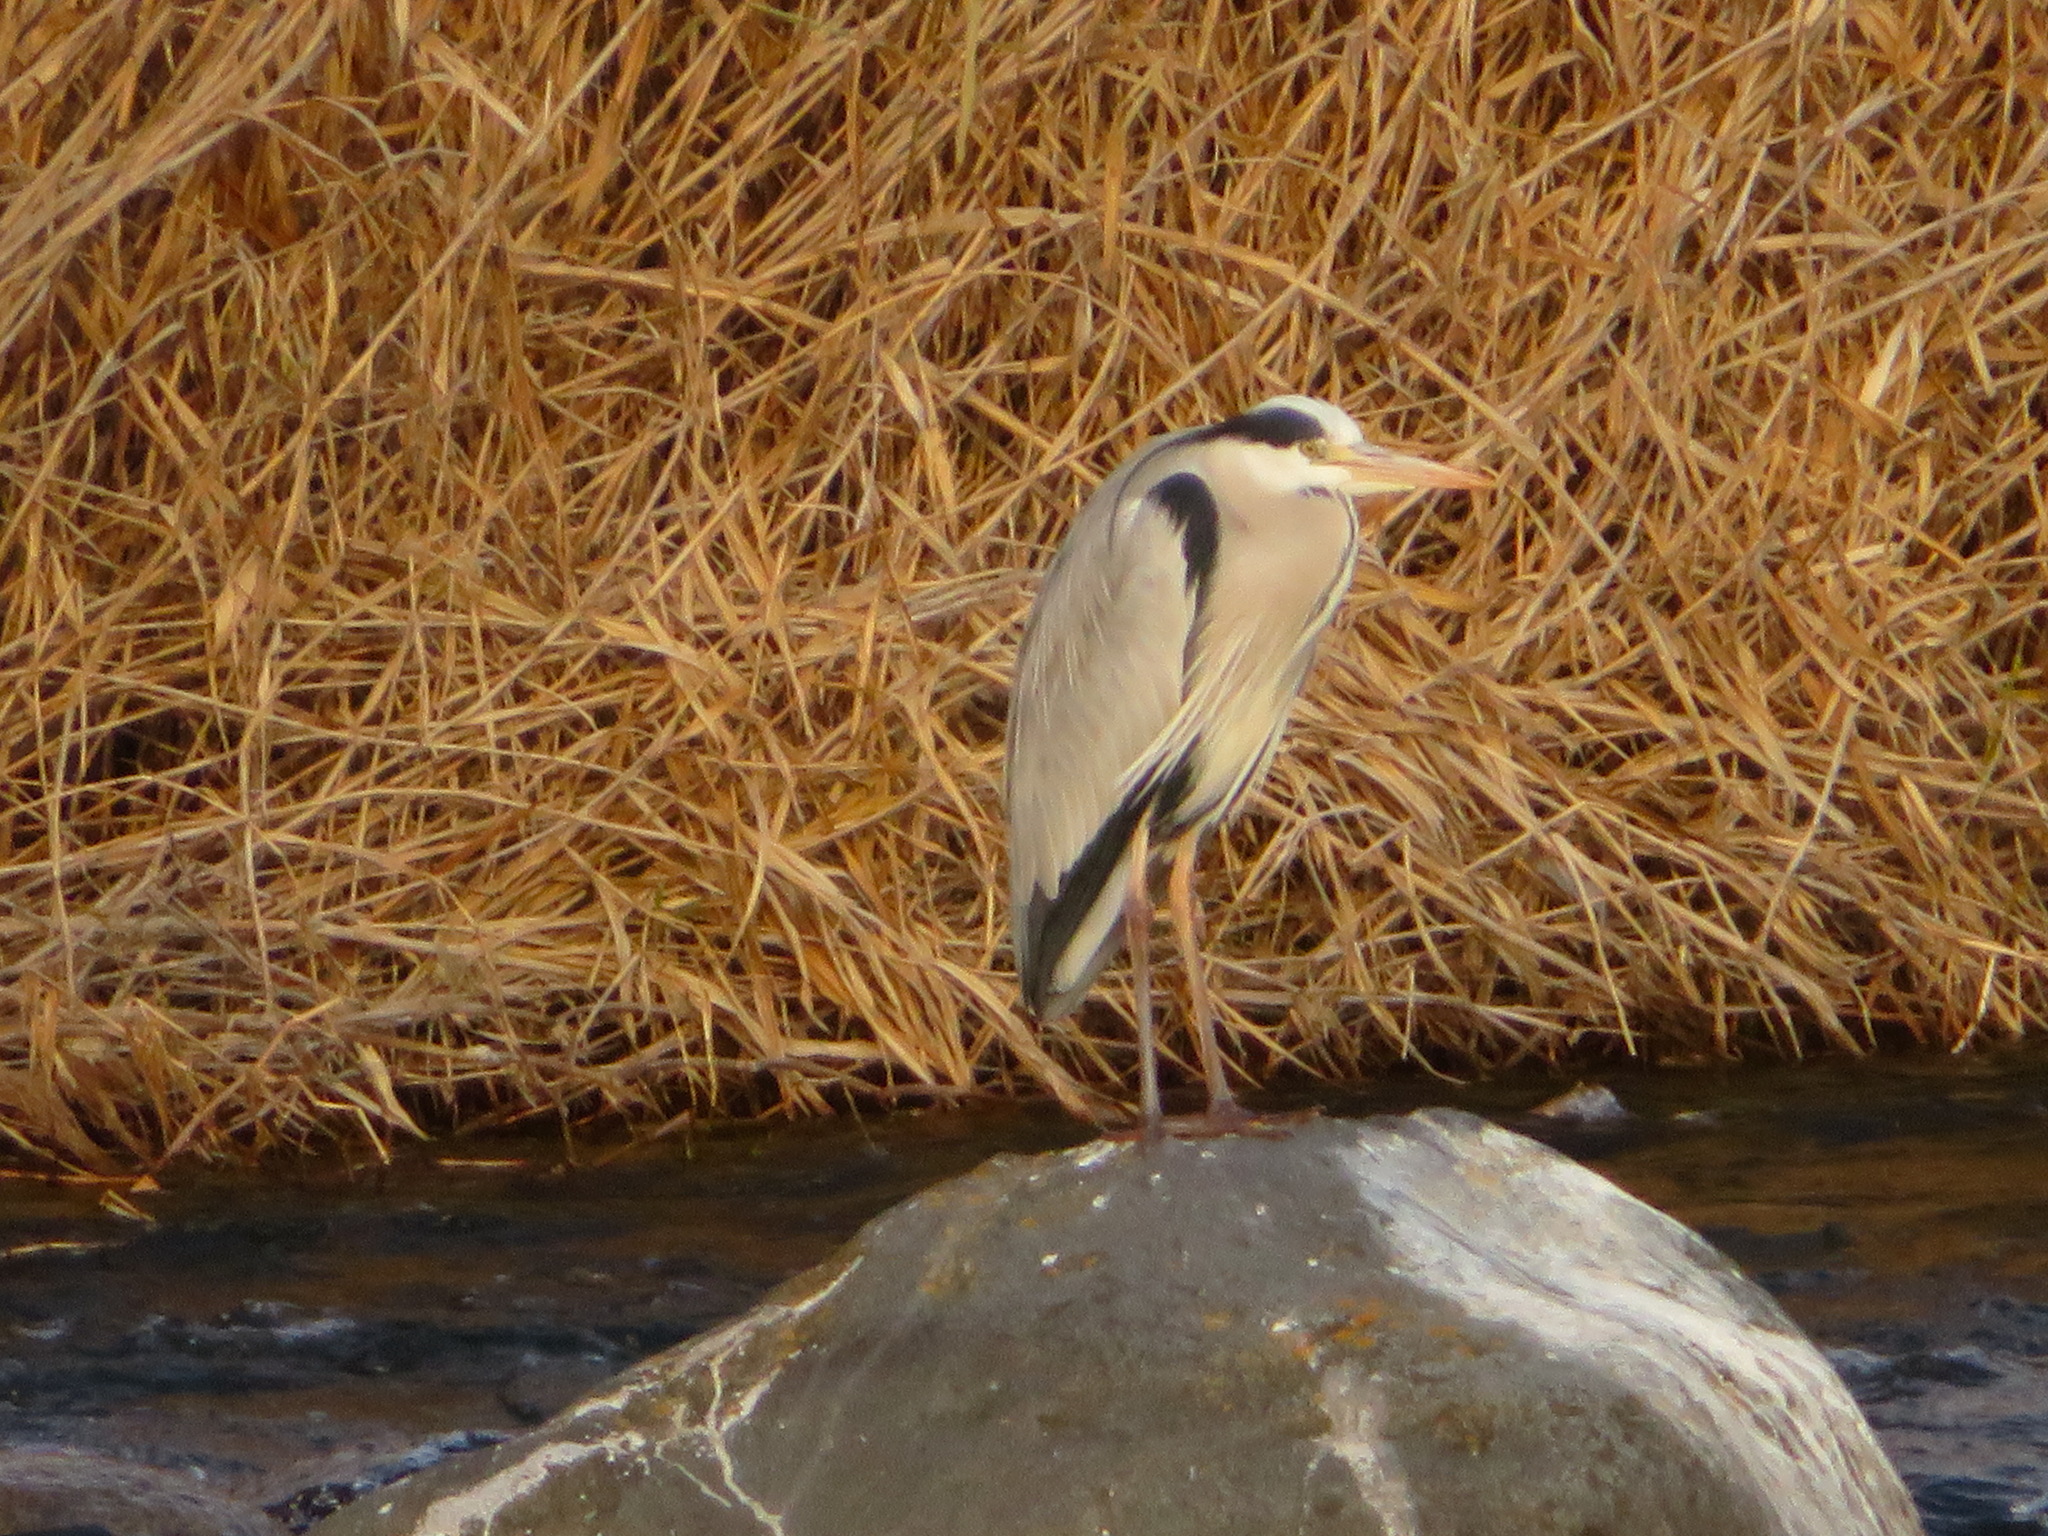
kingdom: Animalia
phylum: Chordata
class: Aves
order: Pelecaniformes
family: Ardeidae
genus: Ardea
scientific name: Ardea cinerea
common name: Grey heron
